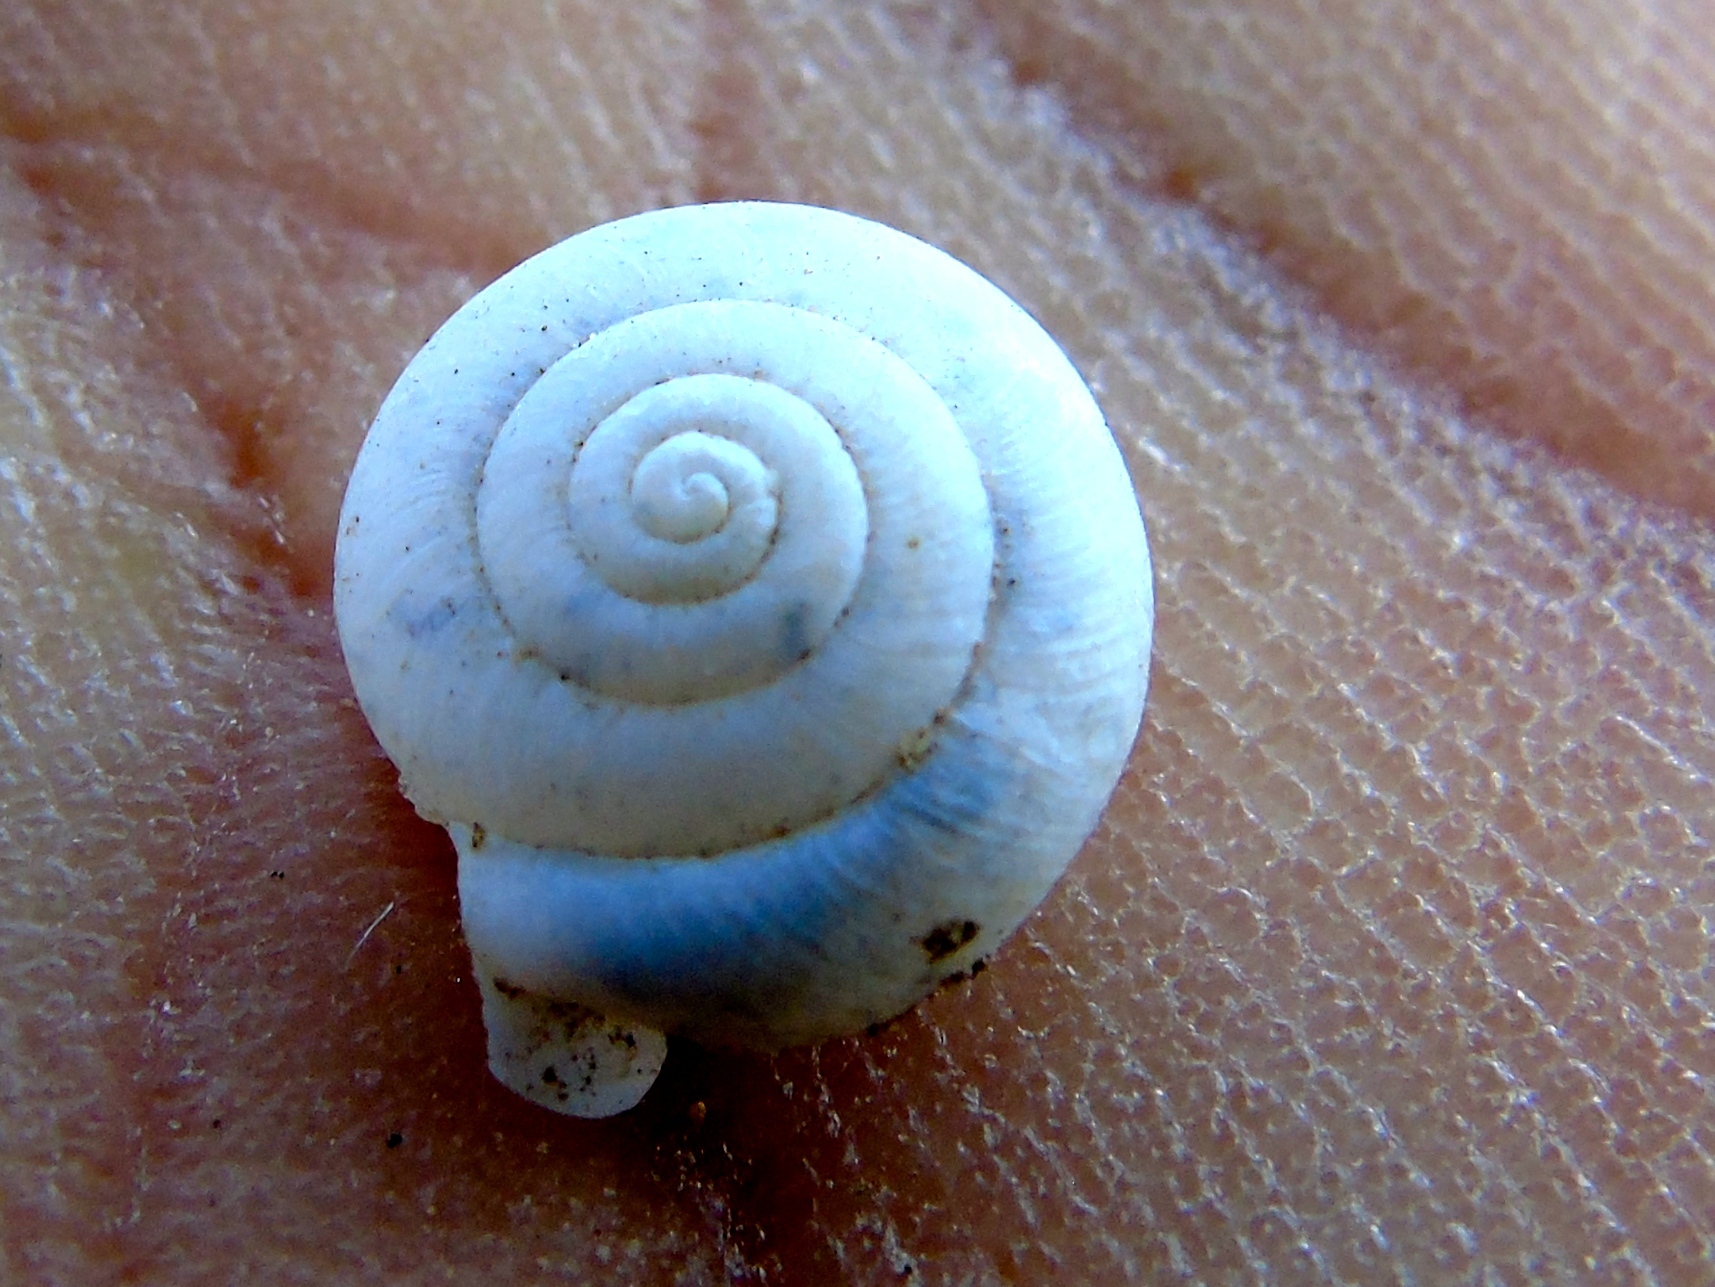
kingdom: Animalia
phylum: Mollusca
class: Gastropoda
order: Stylommatophora
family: Polygyridae
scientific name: Polygyridae
